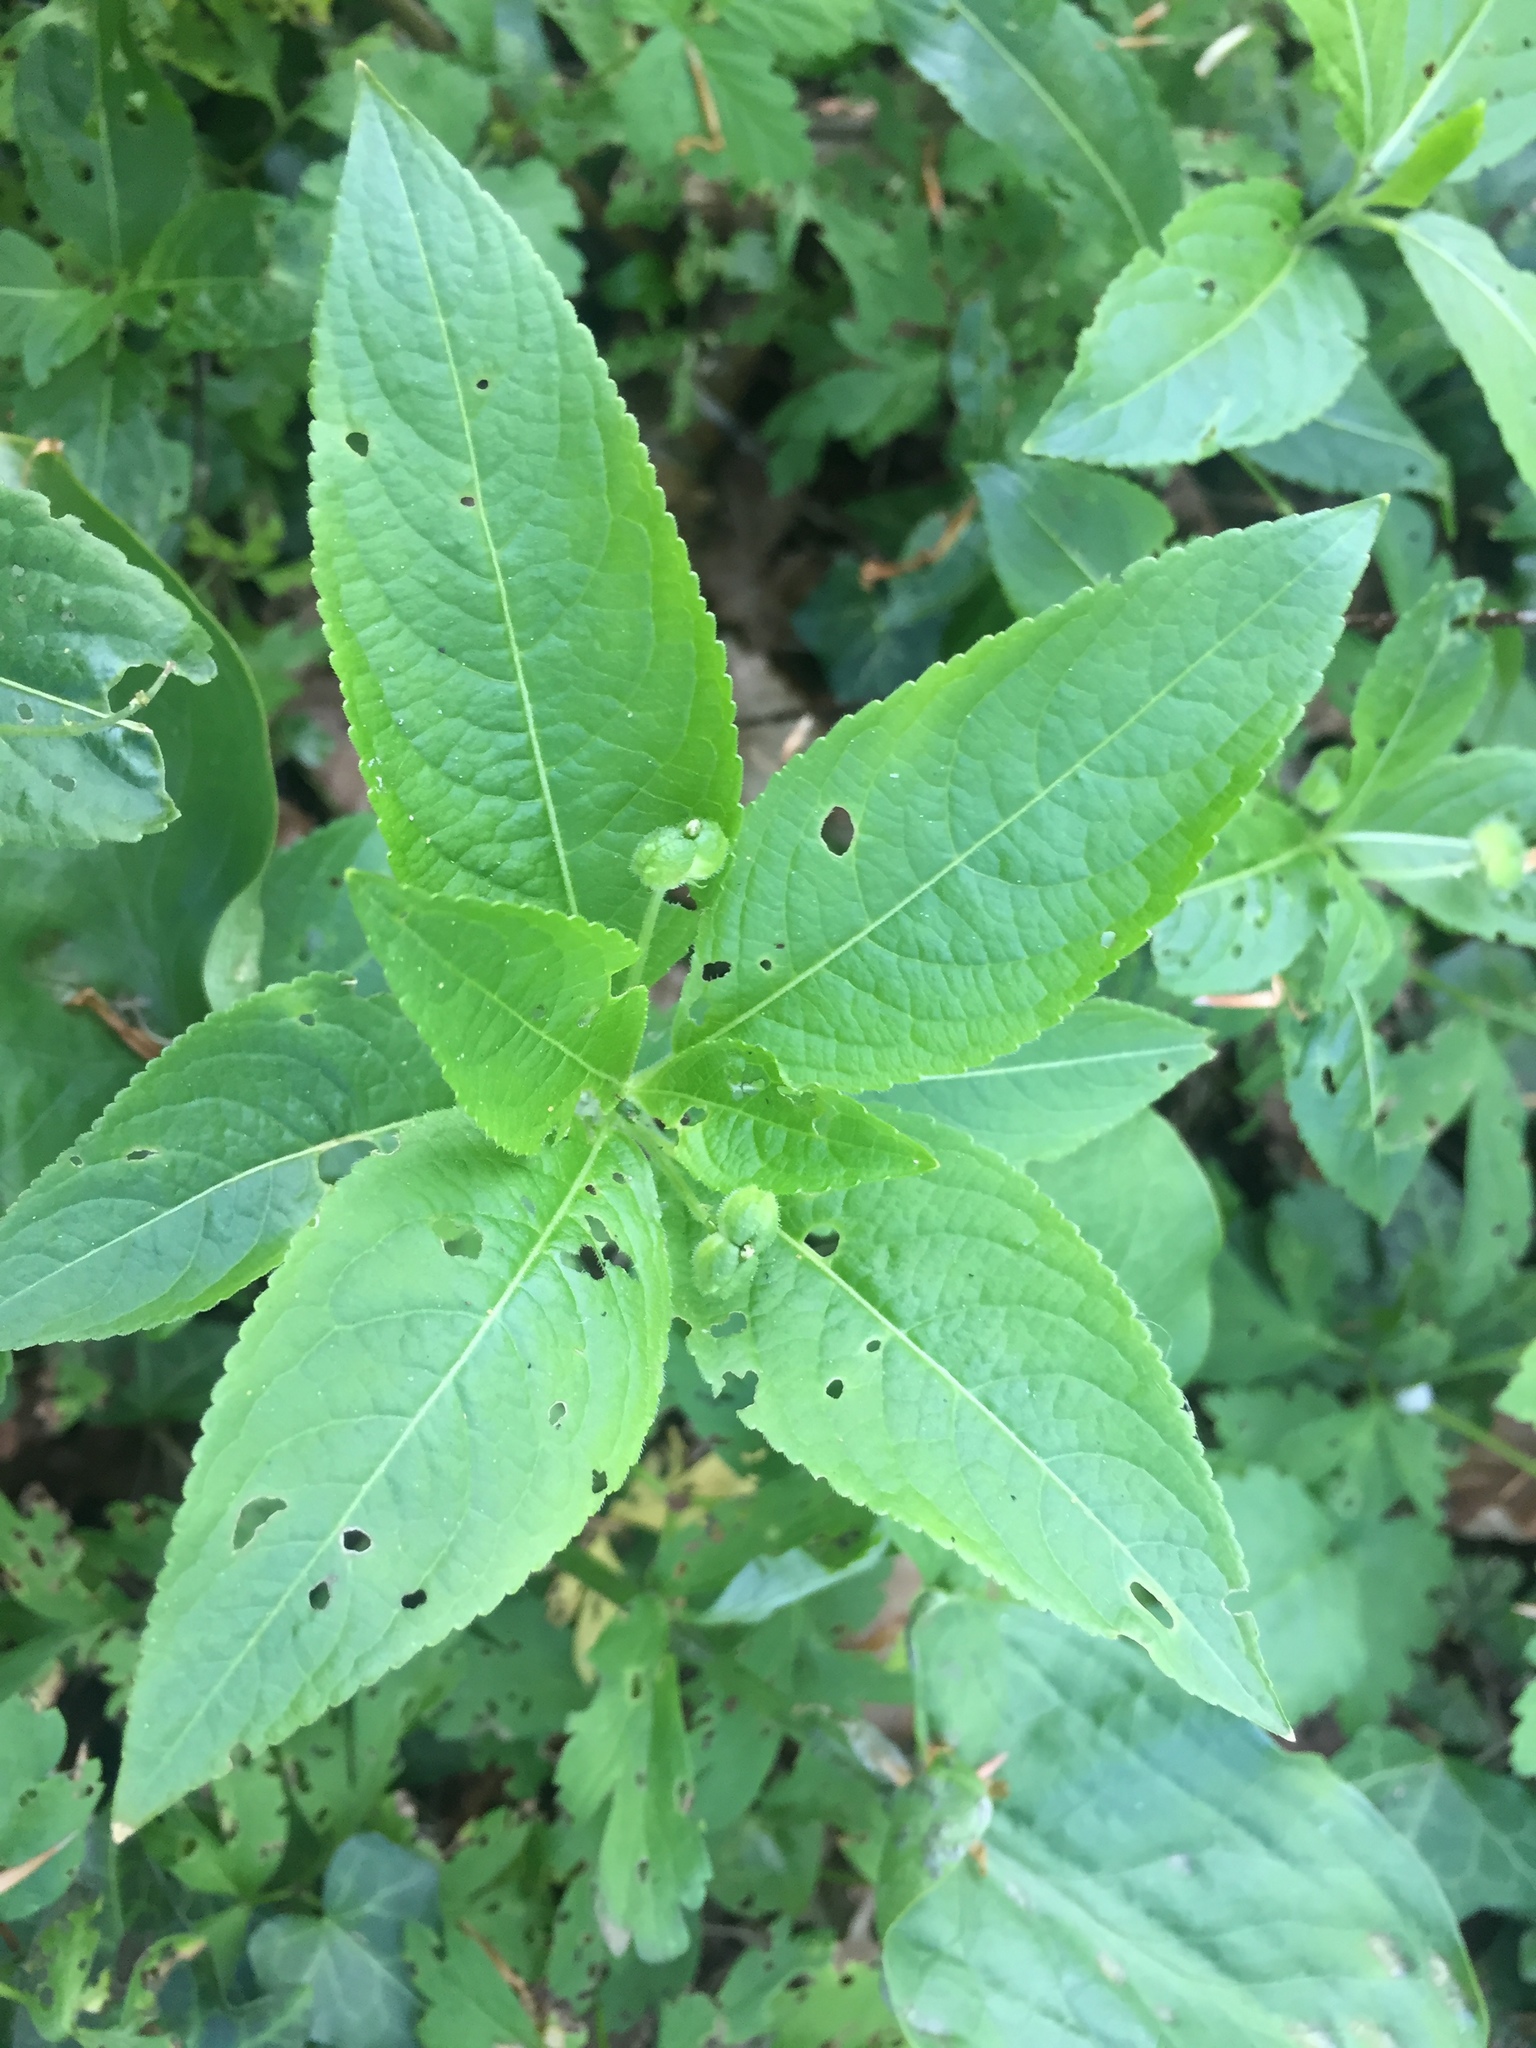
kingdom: Plantae
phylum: Tracheophyta
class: Magnoliopsida
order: Malpighiales
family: Euphorbiaceae
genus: Mercurialis
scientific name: Mercurialis perennis
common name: Dog mercury
